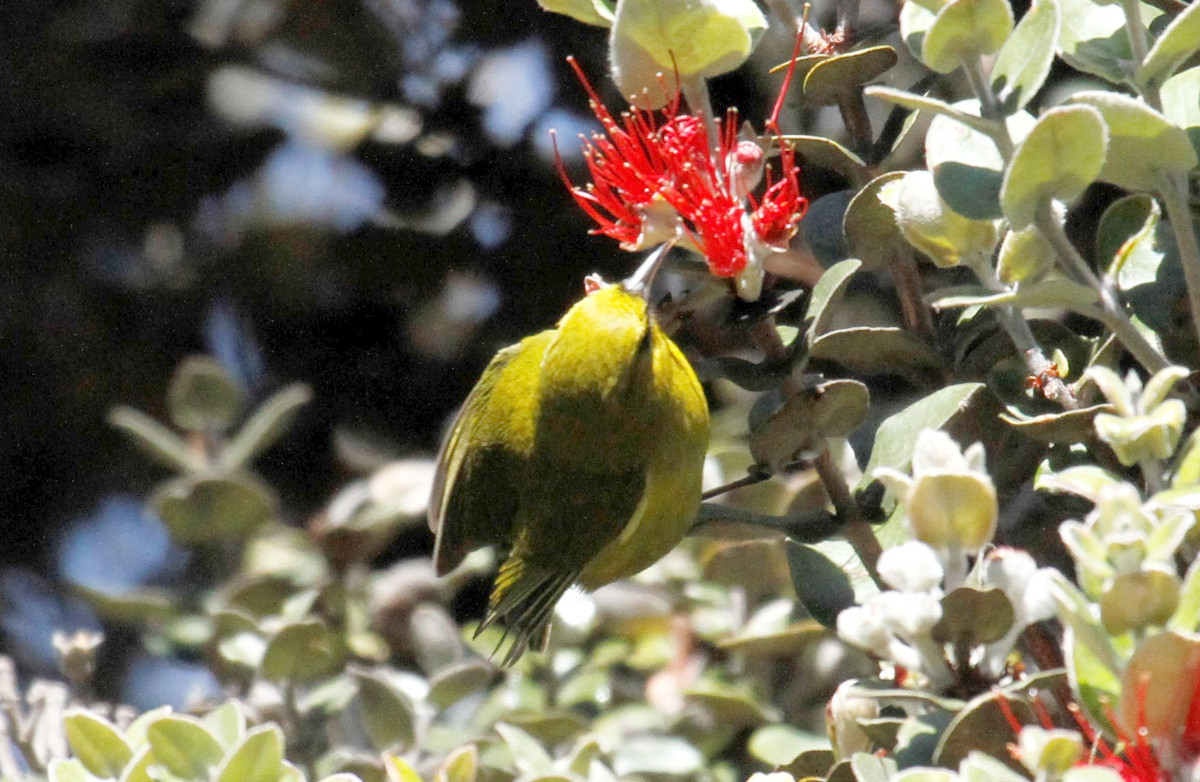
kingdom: Animalia
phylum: Chordata
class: Aves
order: Passeriformes
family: Fringillidae
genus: Chlorodrepanis
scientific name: Chlorodrepanis virens
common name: Hawaii amakihi
